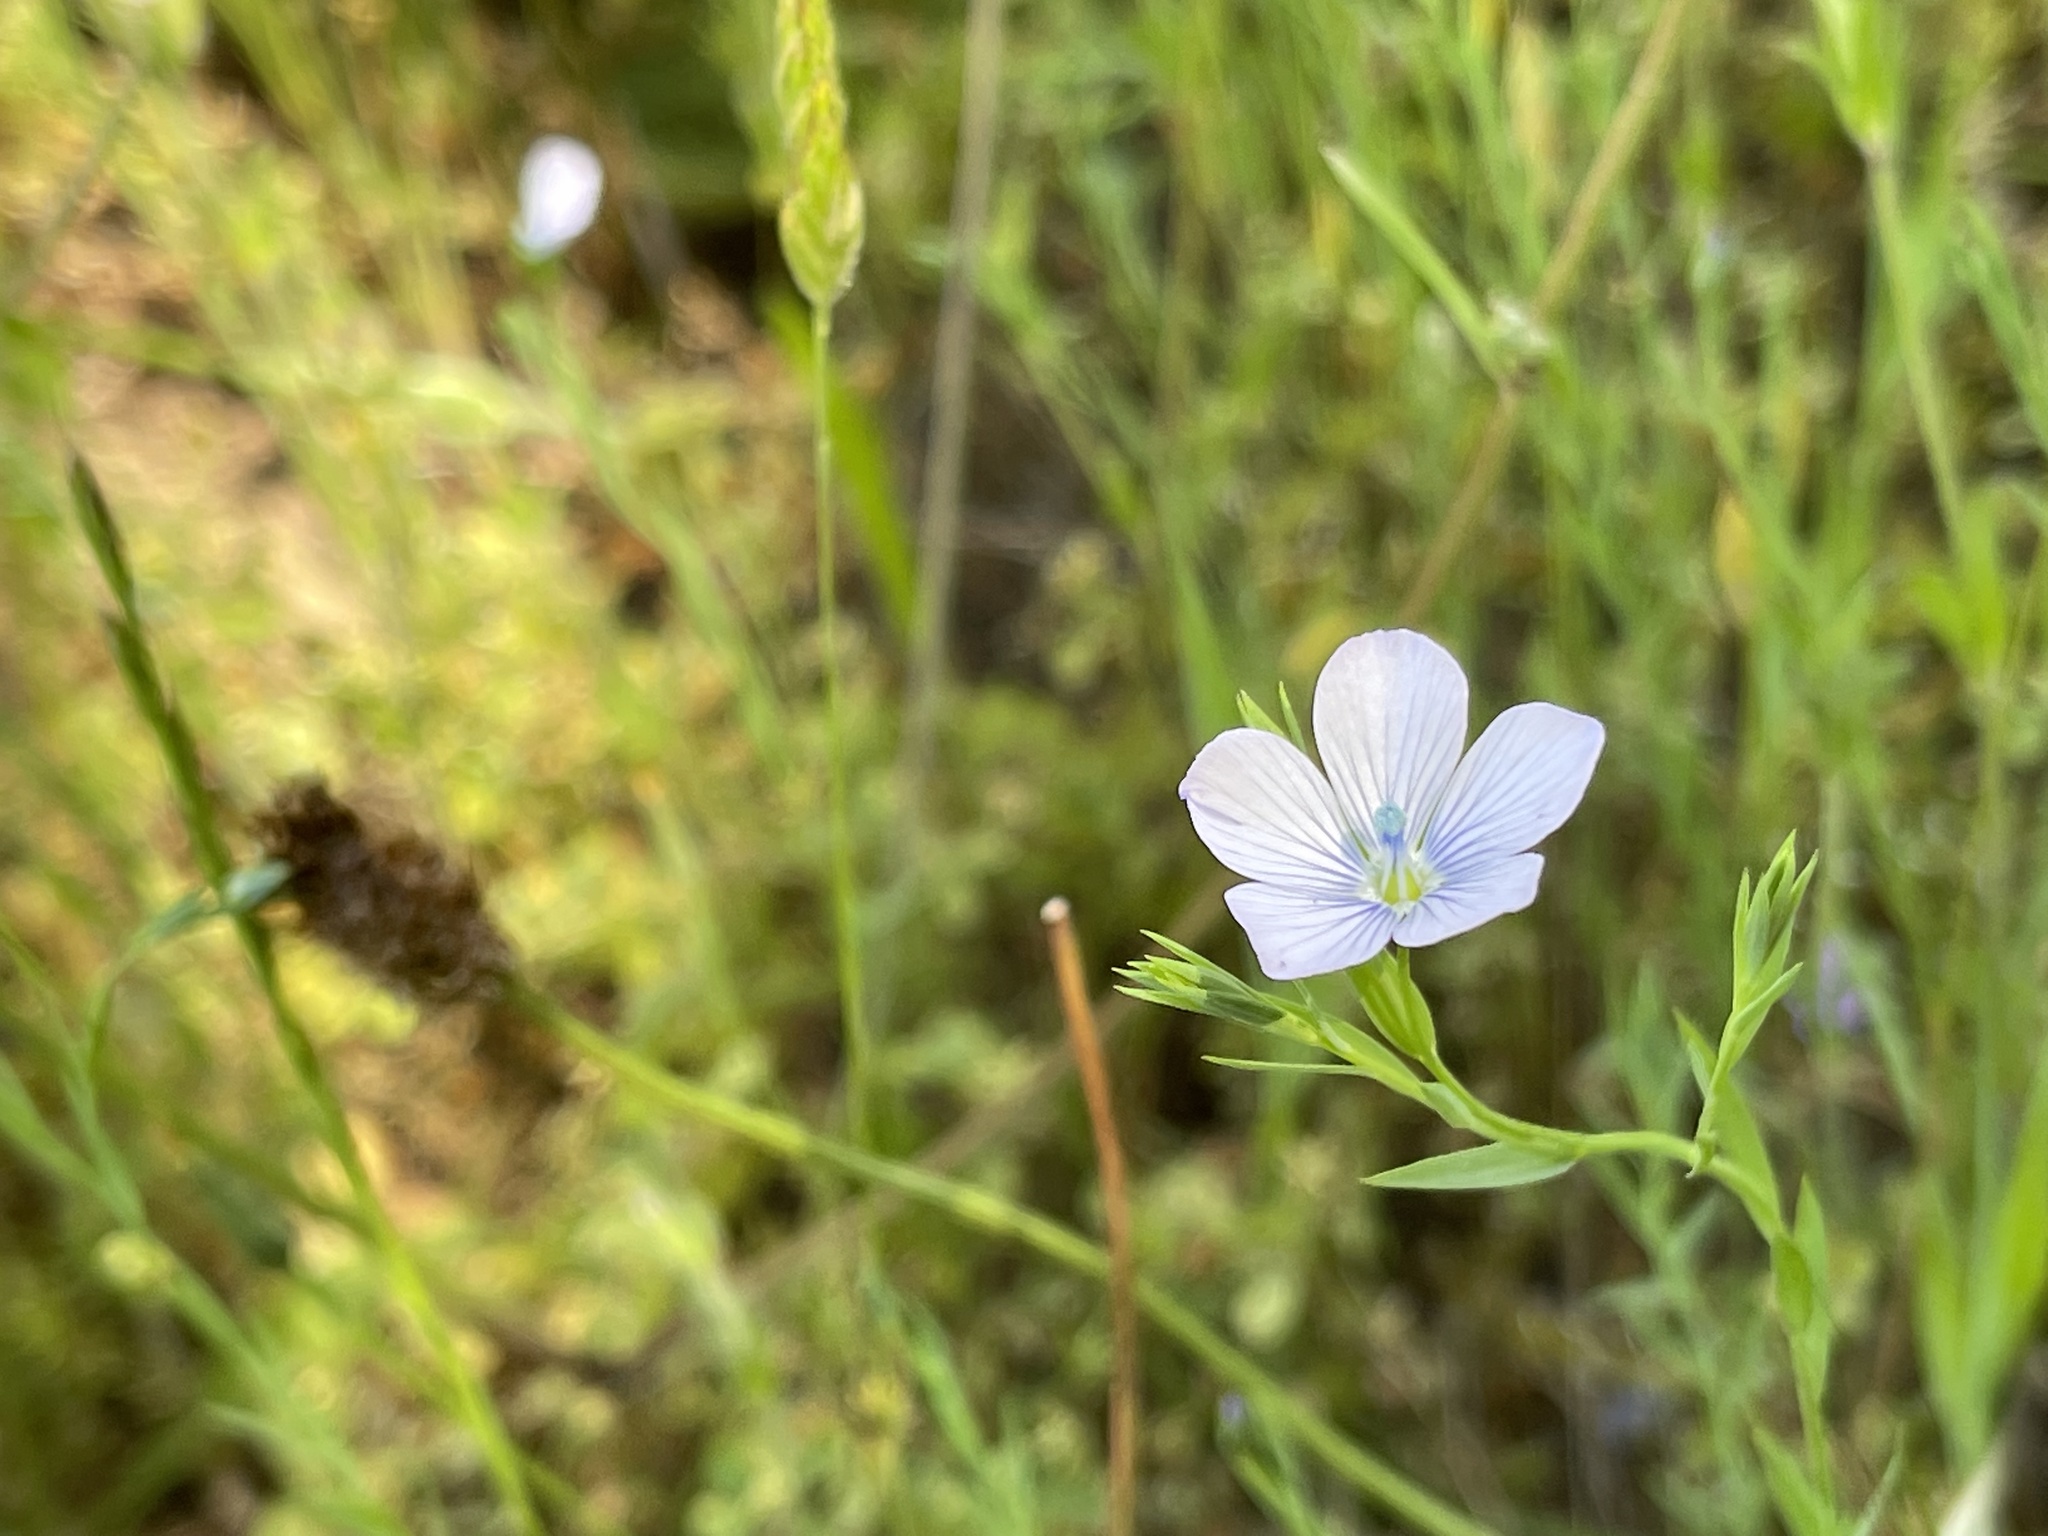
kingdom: Plantae
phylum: Tracheophyta
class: Magnoliopsida
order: Malpighiales
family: Linaceae
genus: Linum
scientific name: Linum bienne
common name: Pale flax
